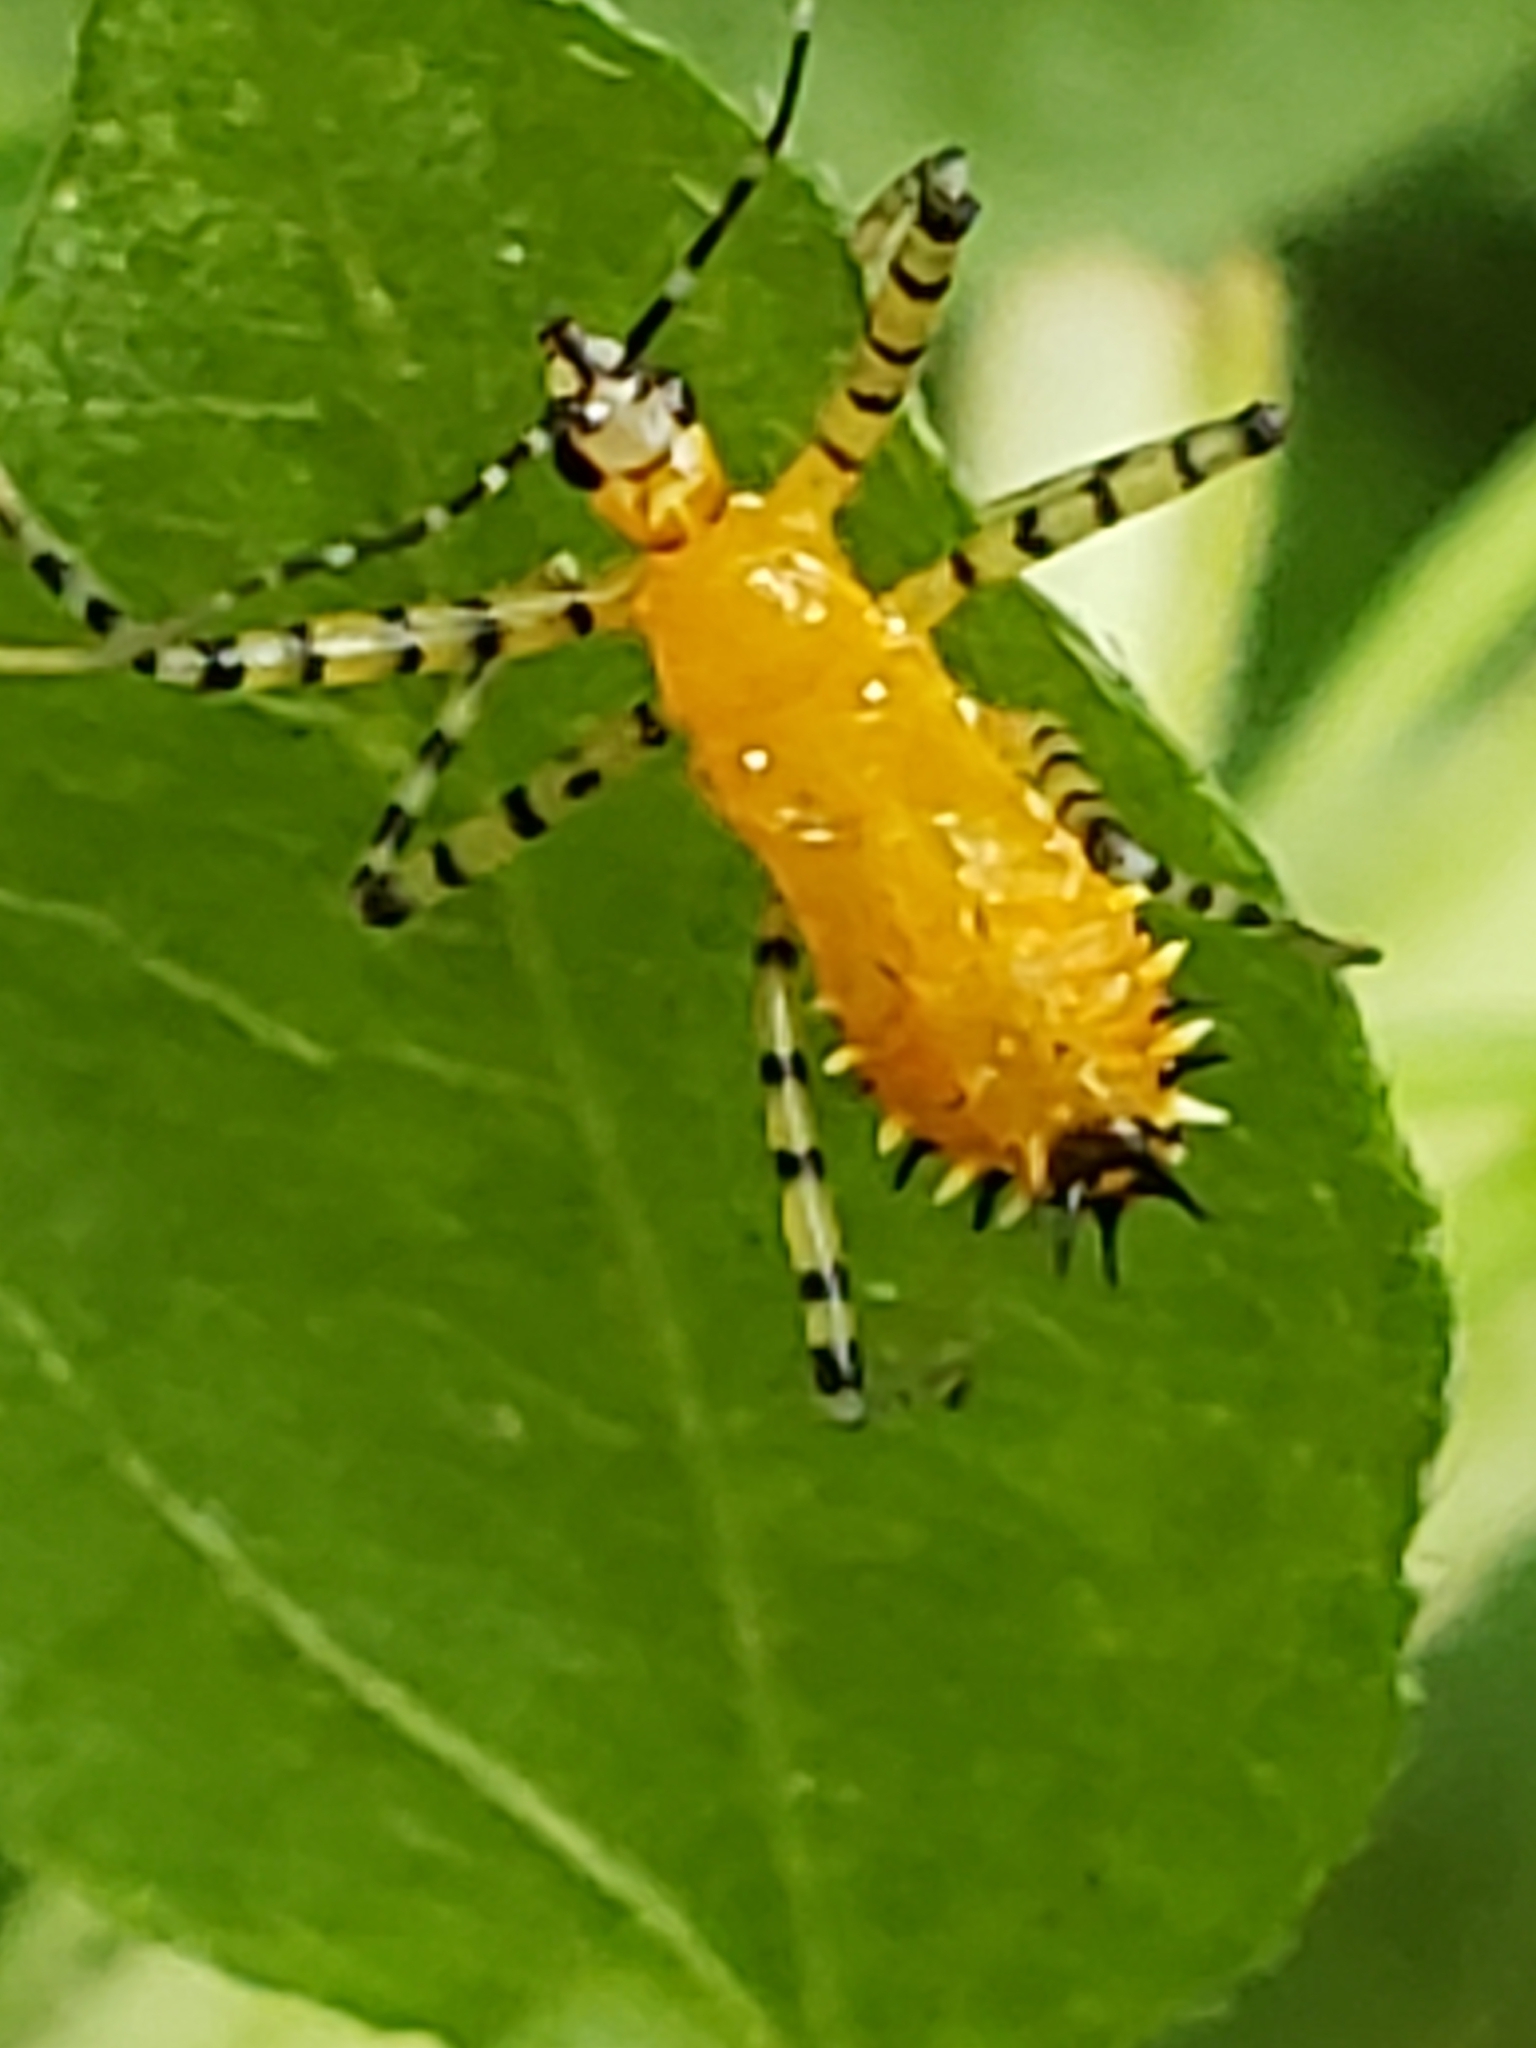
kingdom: Animalia
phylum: Arthropoda
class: Insecta
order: Hemiptera
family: Reduviidae
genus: Pselliopus
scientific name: Pselliopus barberi
